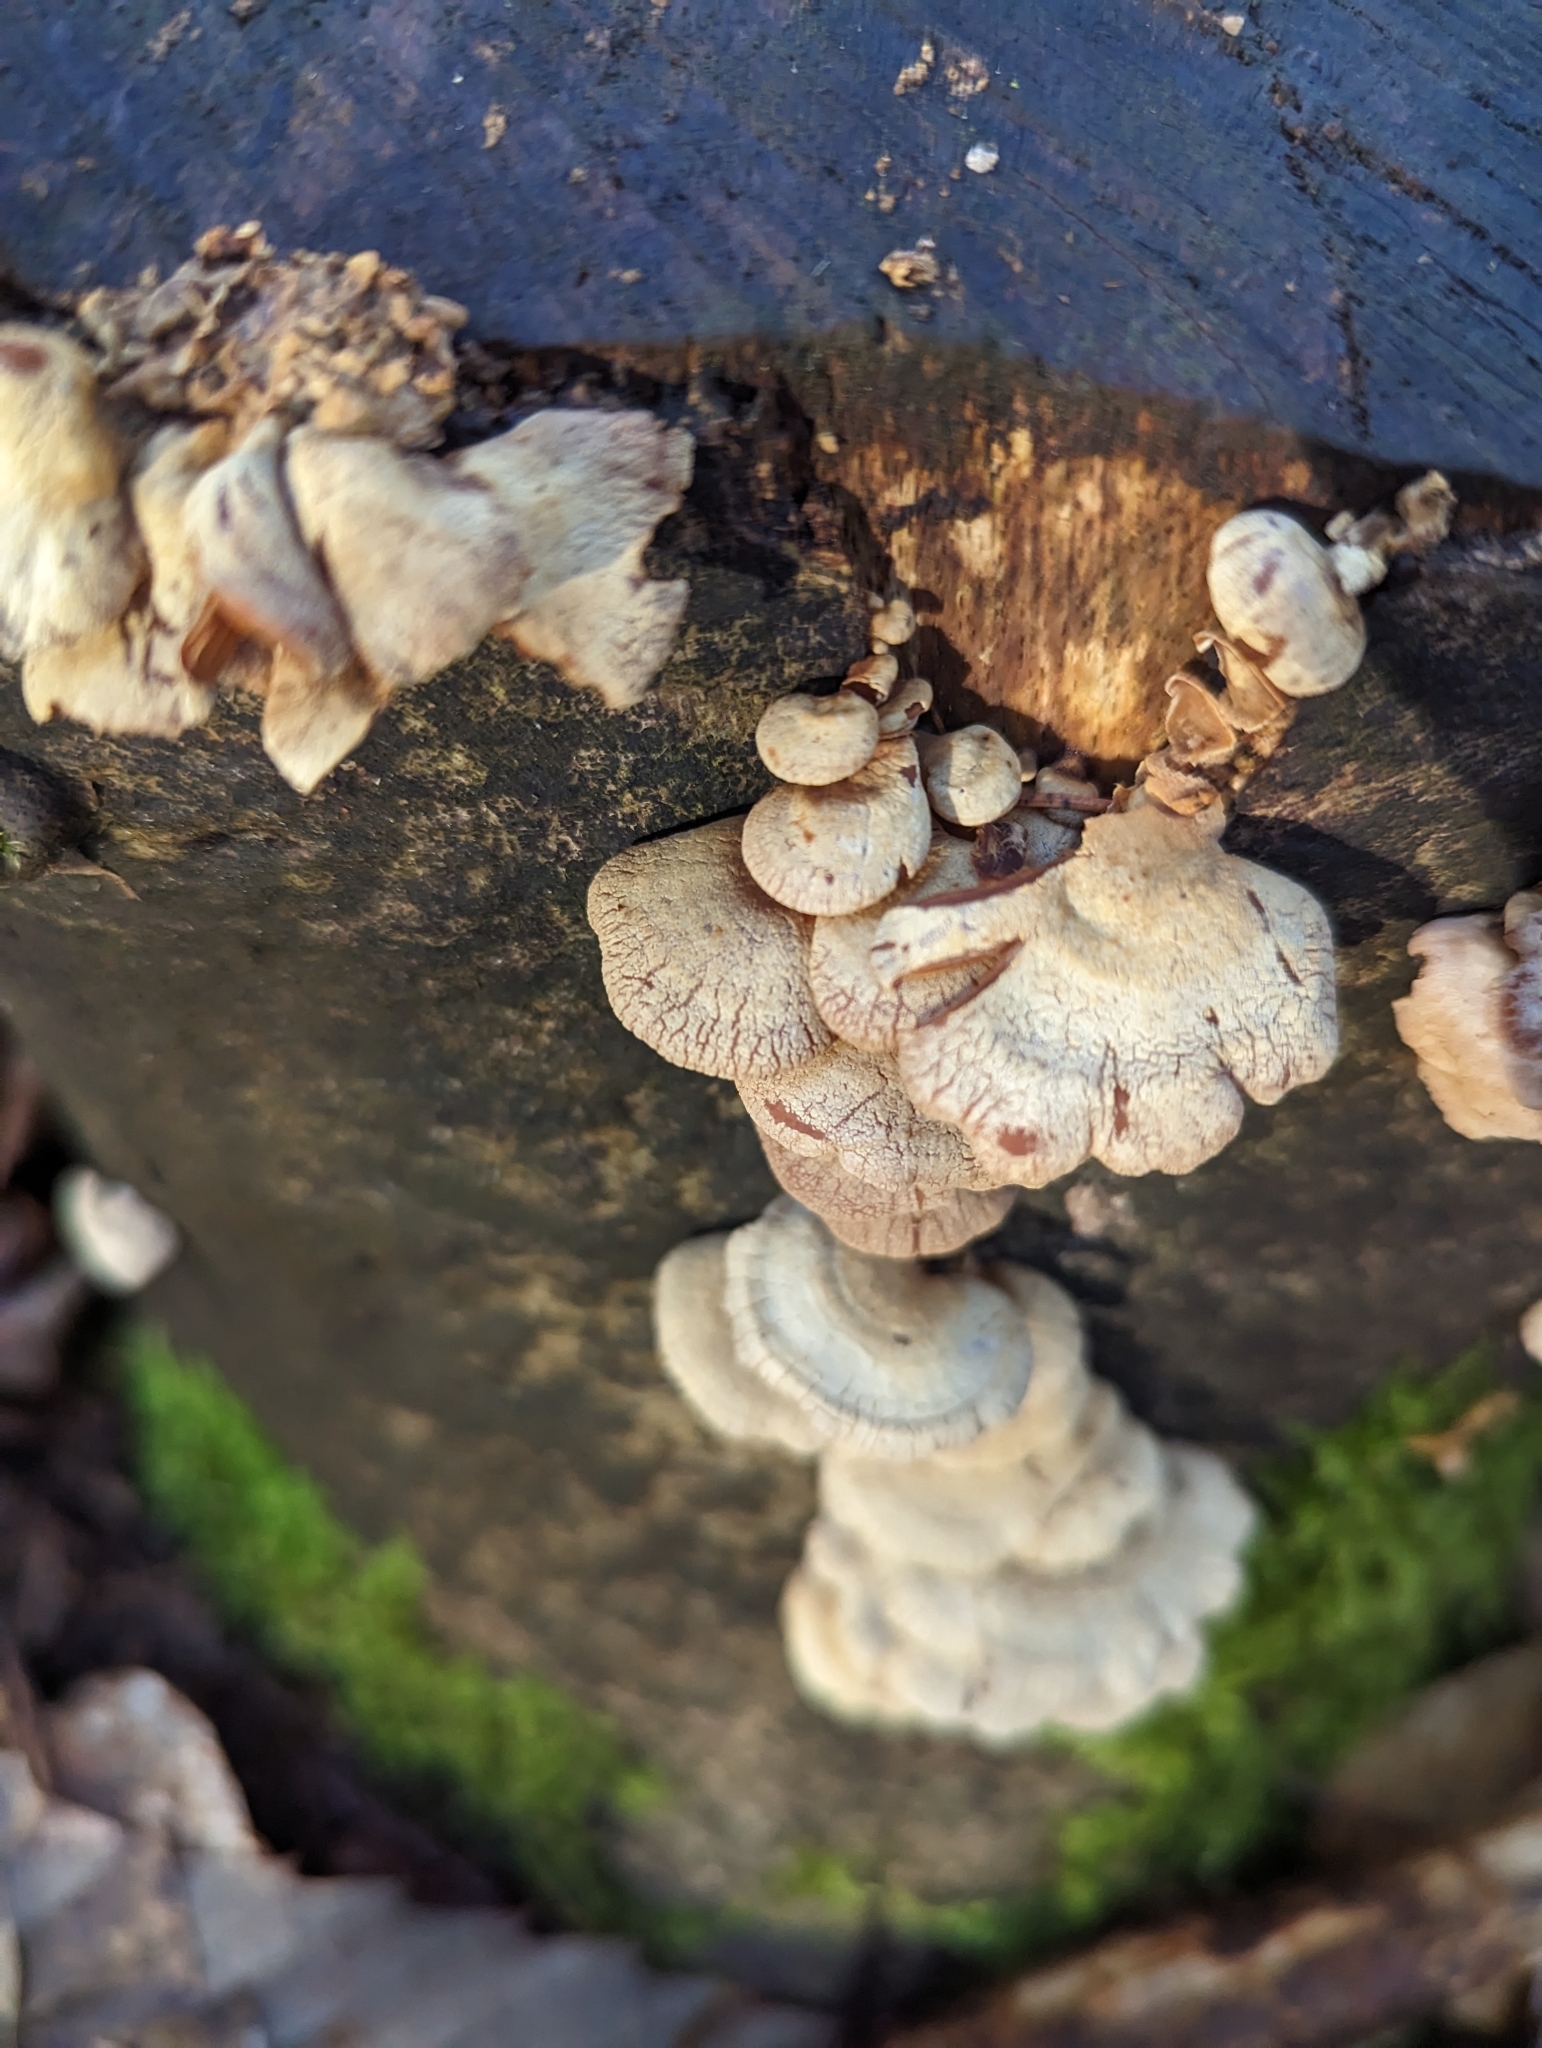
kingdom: Fungi
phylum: Basidiomycota
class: Agaricomycetes
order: Agaricales
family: Mycenaceae
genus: Panellus
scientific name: Panellus stipticus
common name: Bitter oysterling
